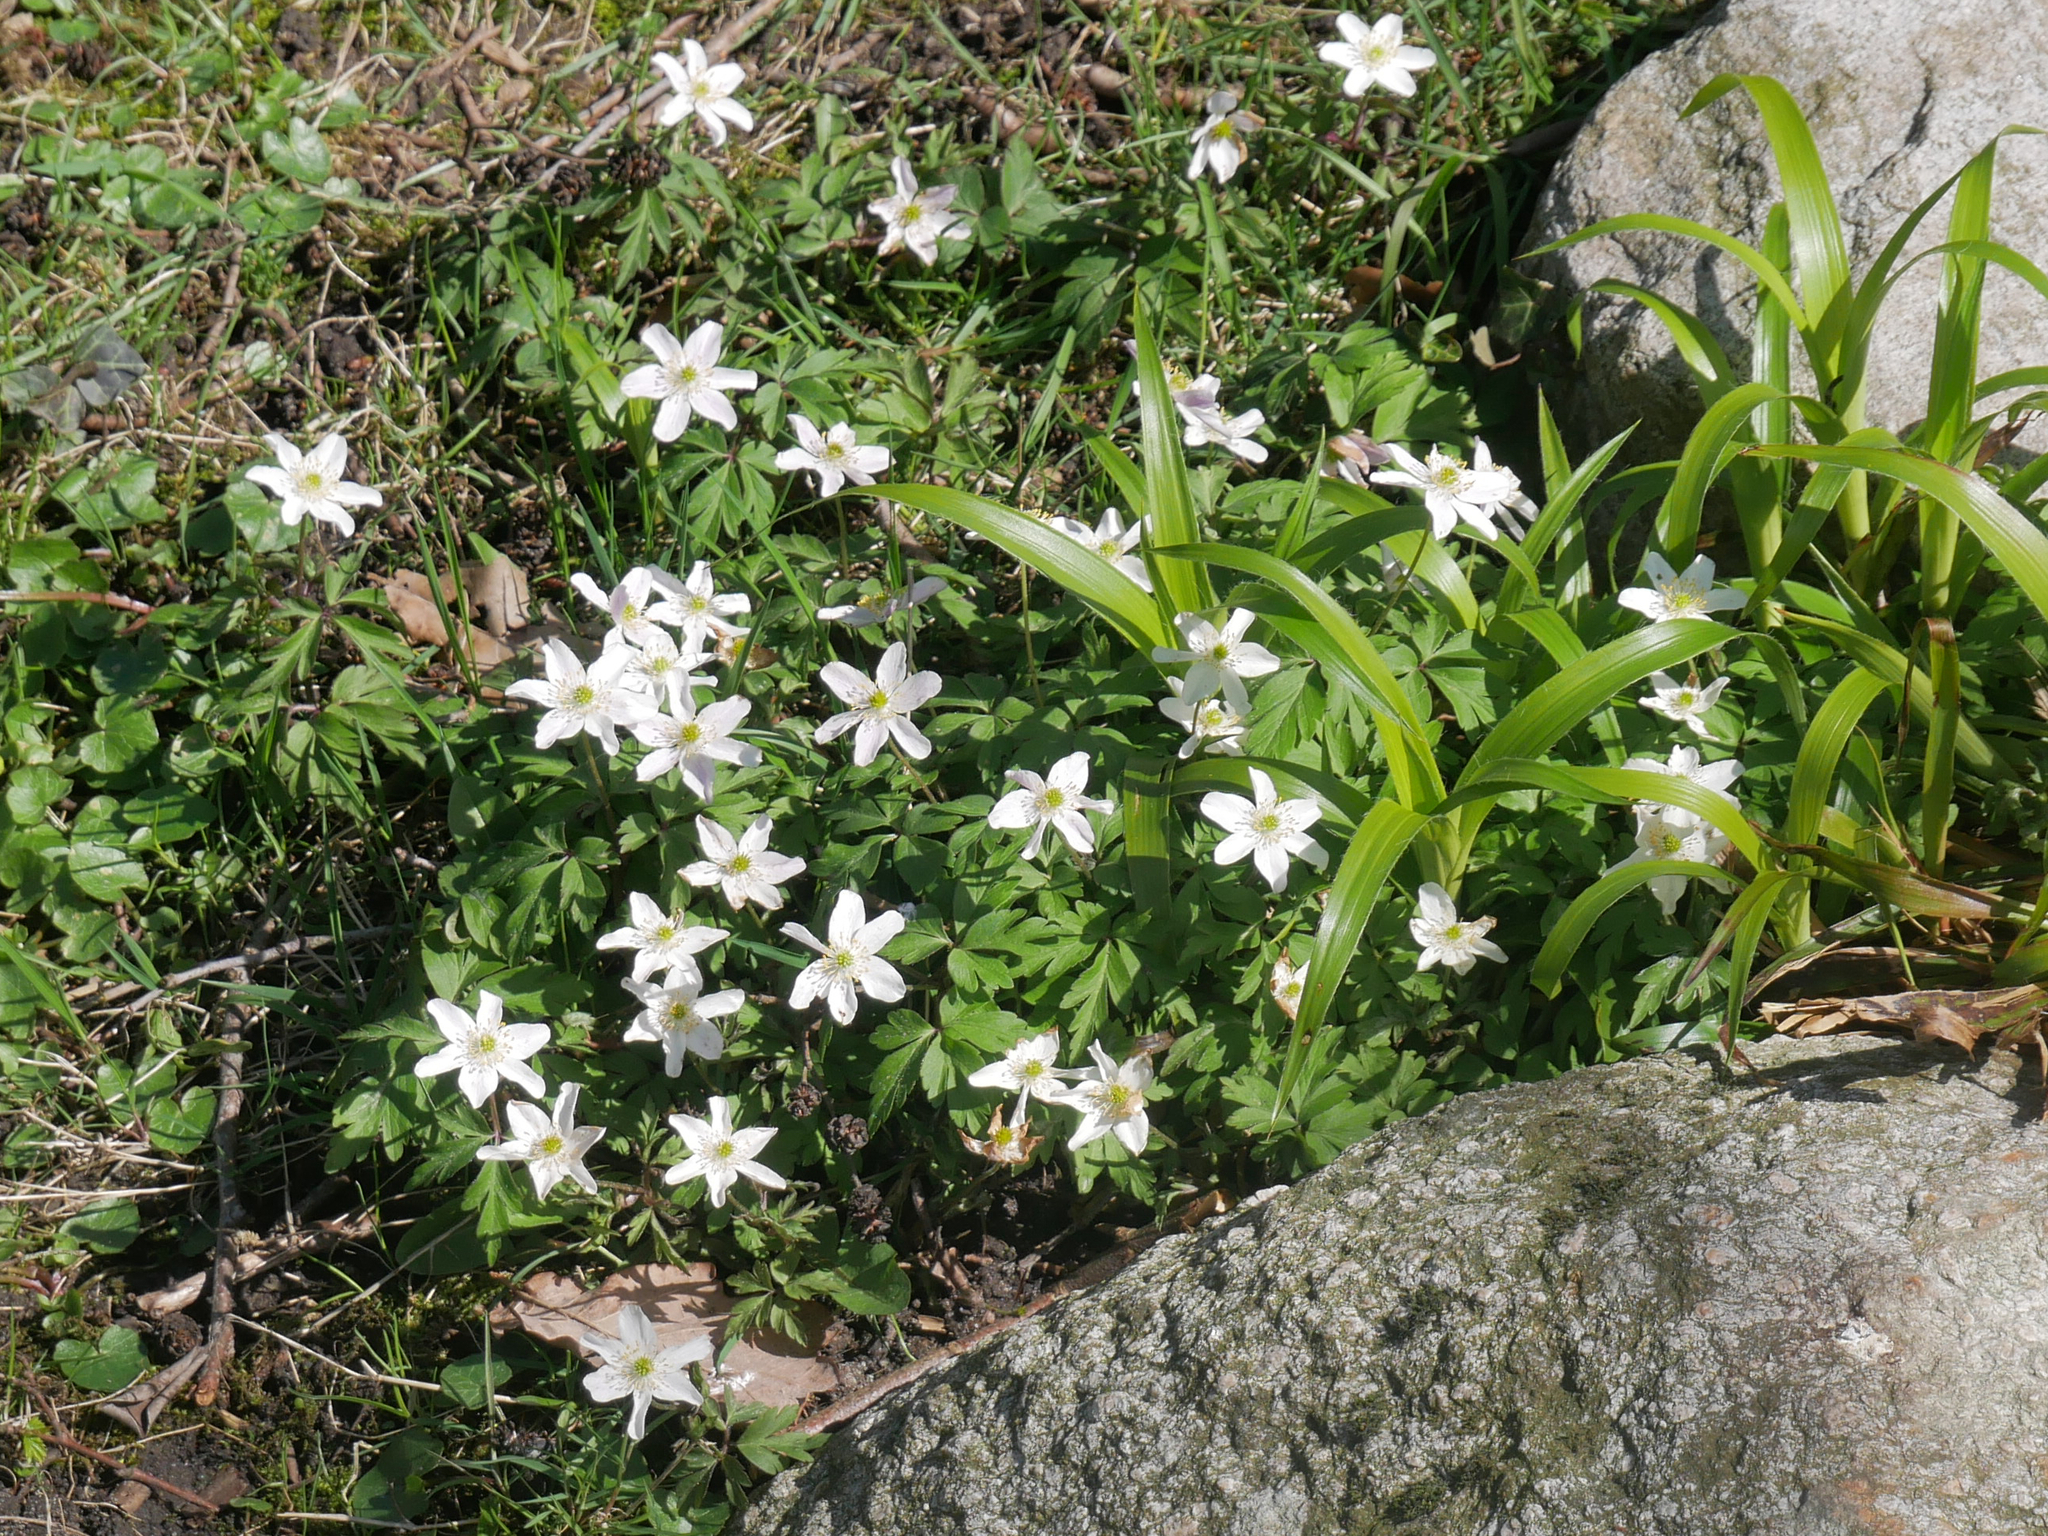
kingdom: Plantae
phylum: Tracheophyta
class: Magnoliopsida
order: Ranunculales
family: Ranunculaceae
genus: Anemone
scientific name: Anemone nemorosa
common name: Wood anemone
